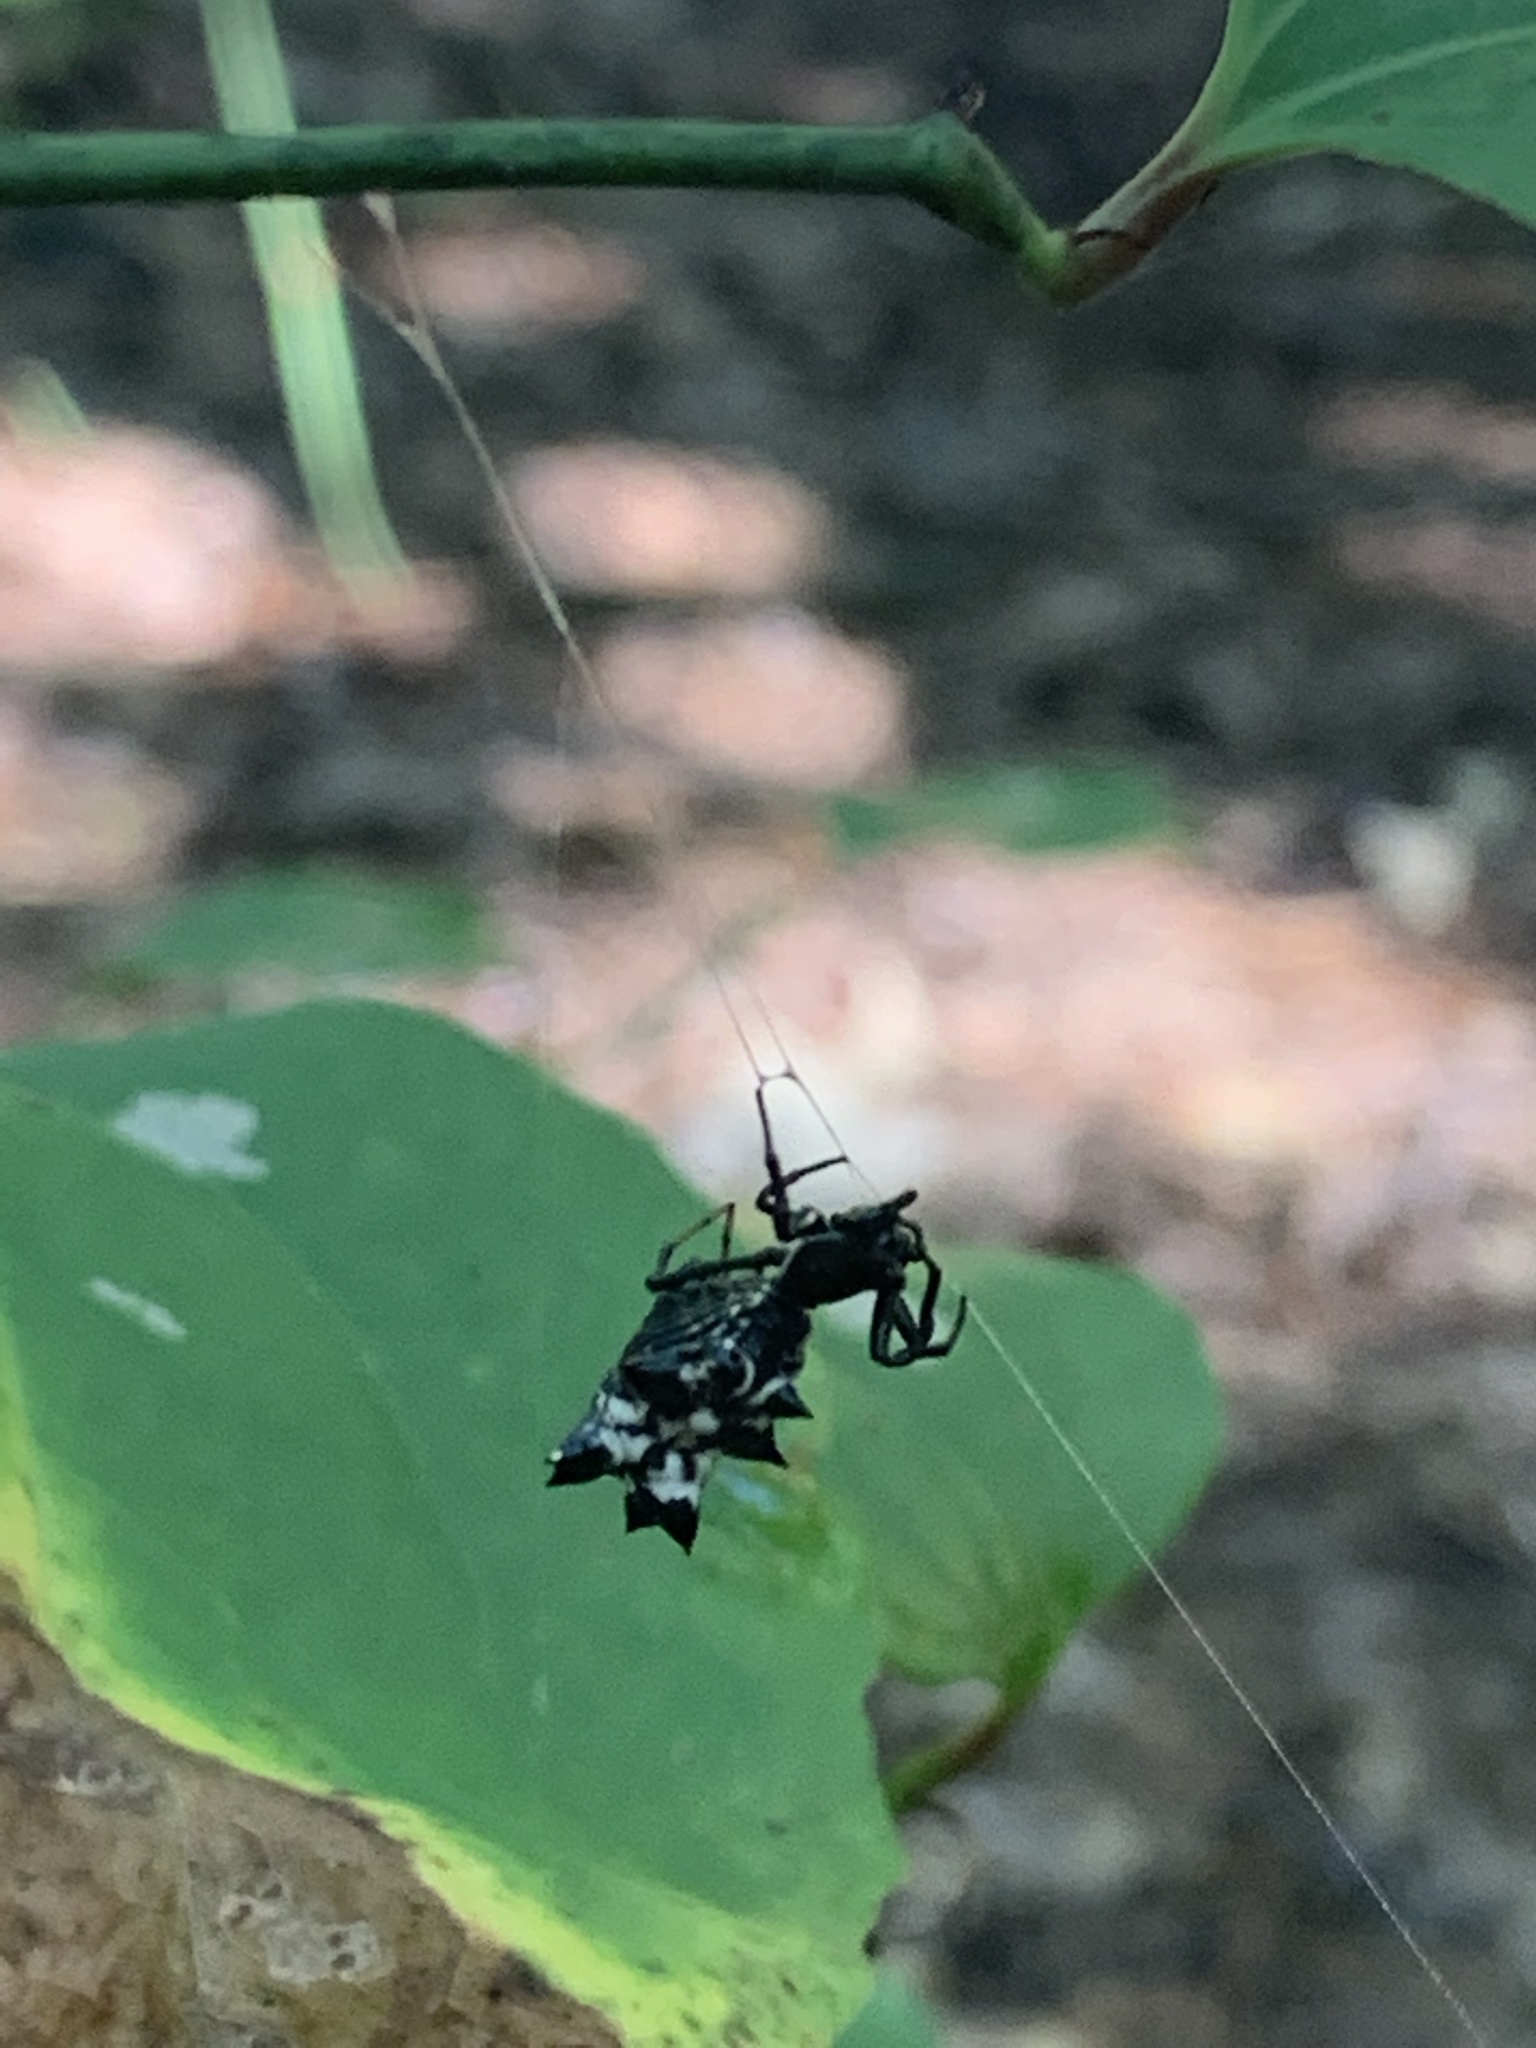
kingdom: Animalia
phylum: Arthropoda
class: Arachnida
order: Araneae
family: Araneidae
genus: Micrathena
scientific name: Micrathena gracilis
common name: Orb weavers
